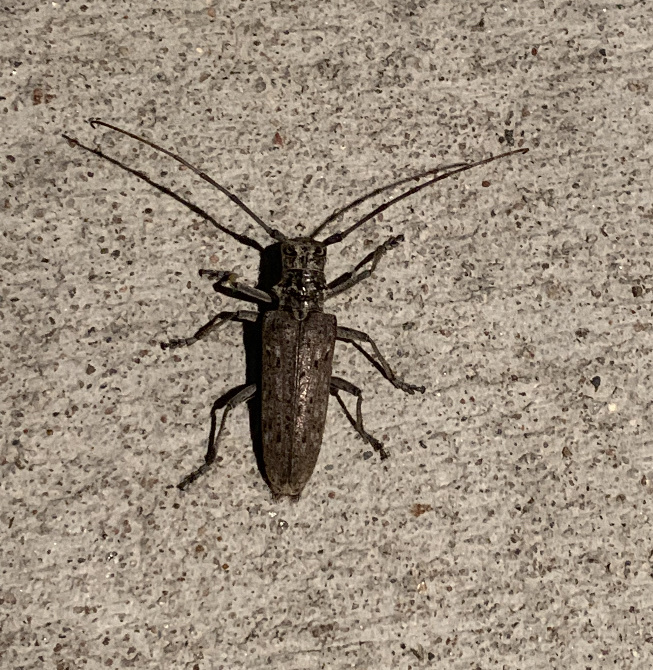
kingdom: Animalia
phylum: Arthropoda
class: Insecta
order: Coleoptera
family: Cerambycidae
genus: Monochamus
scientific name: Monochamus notatus
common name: Northeastern pine sawyer beetle
